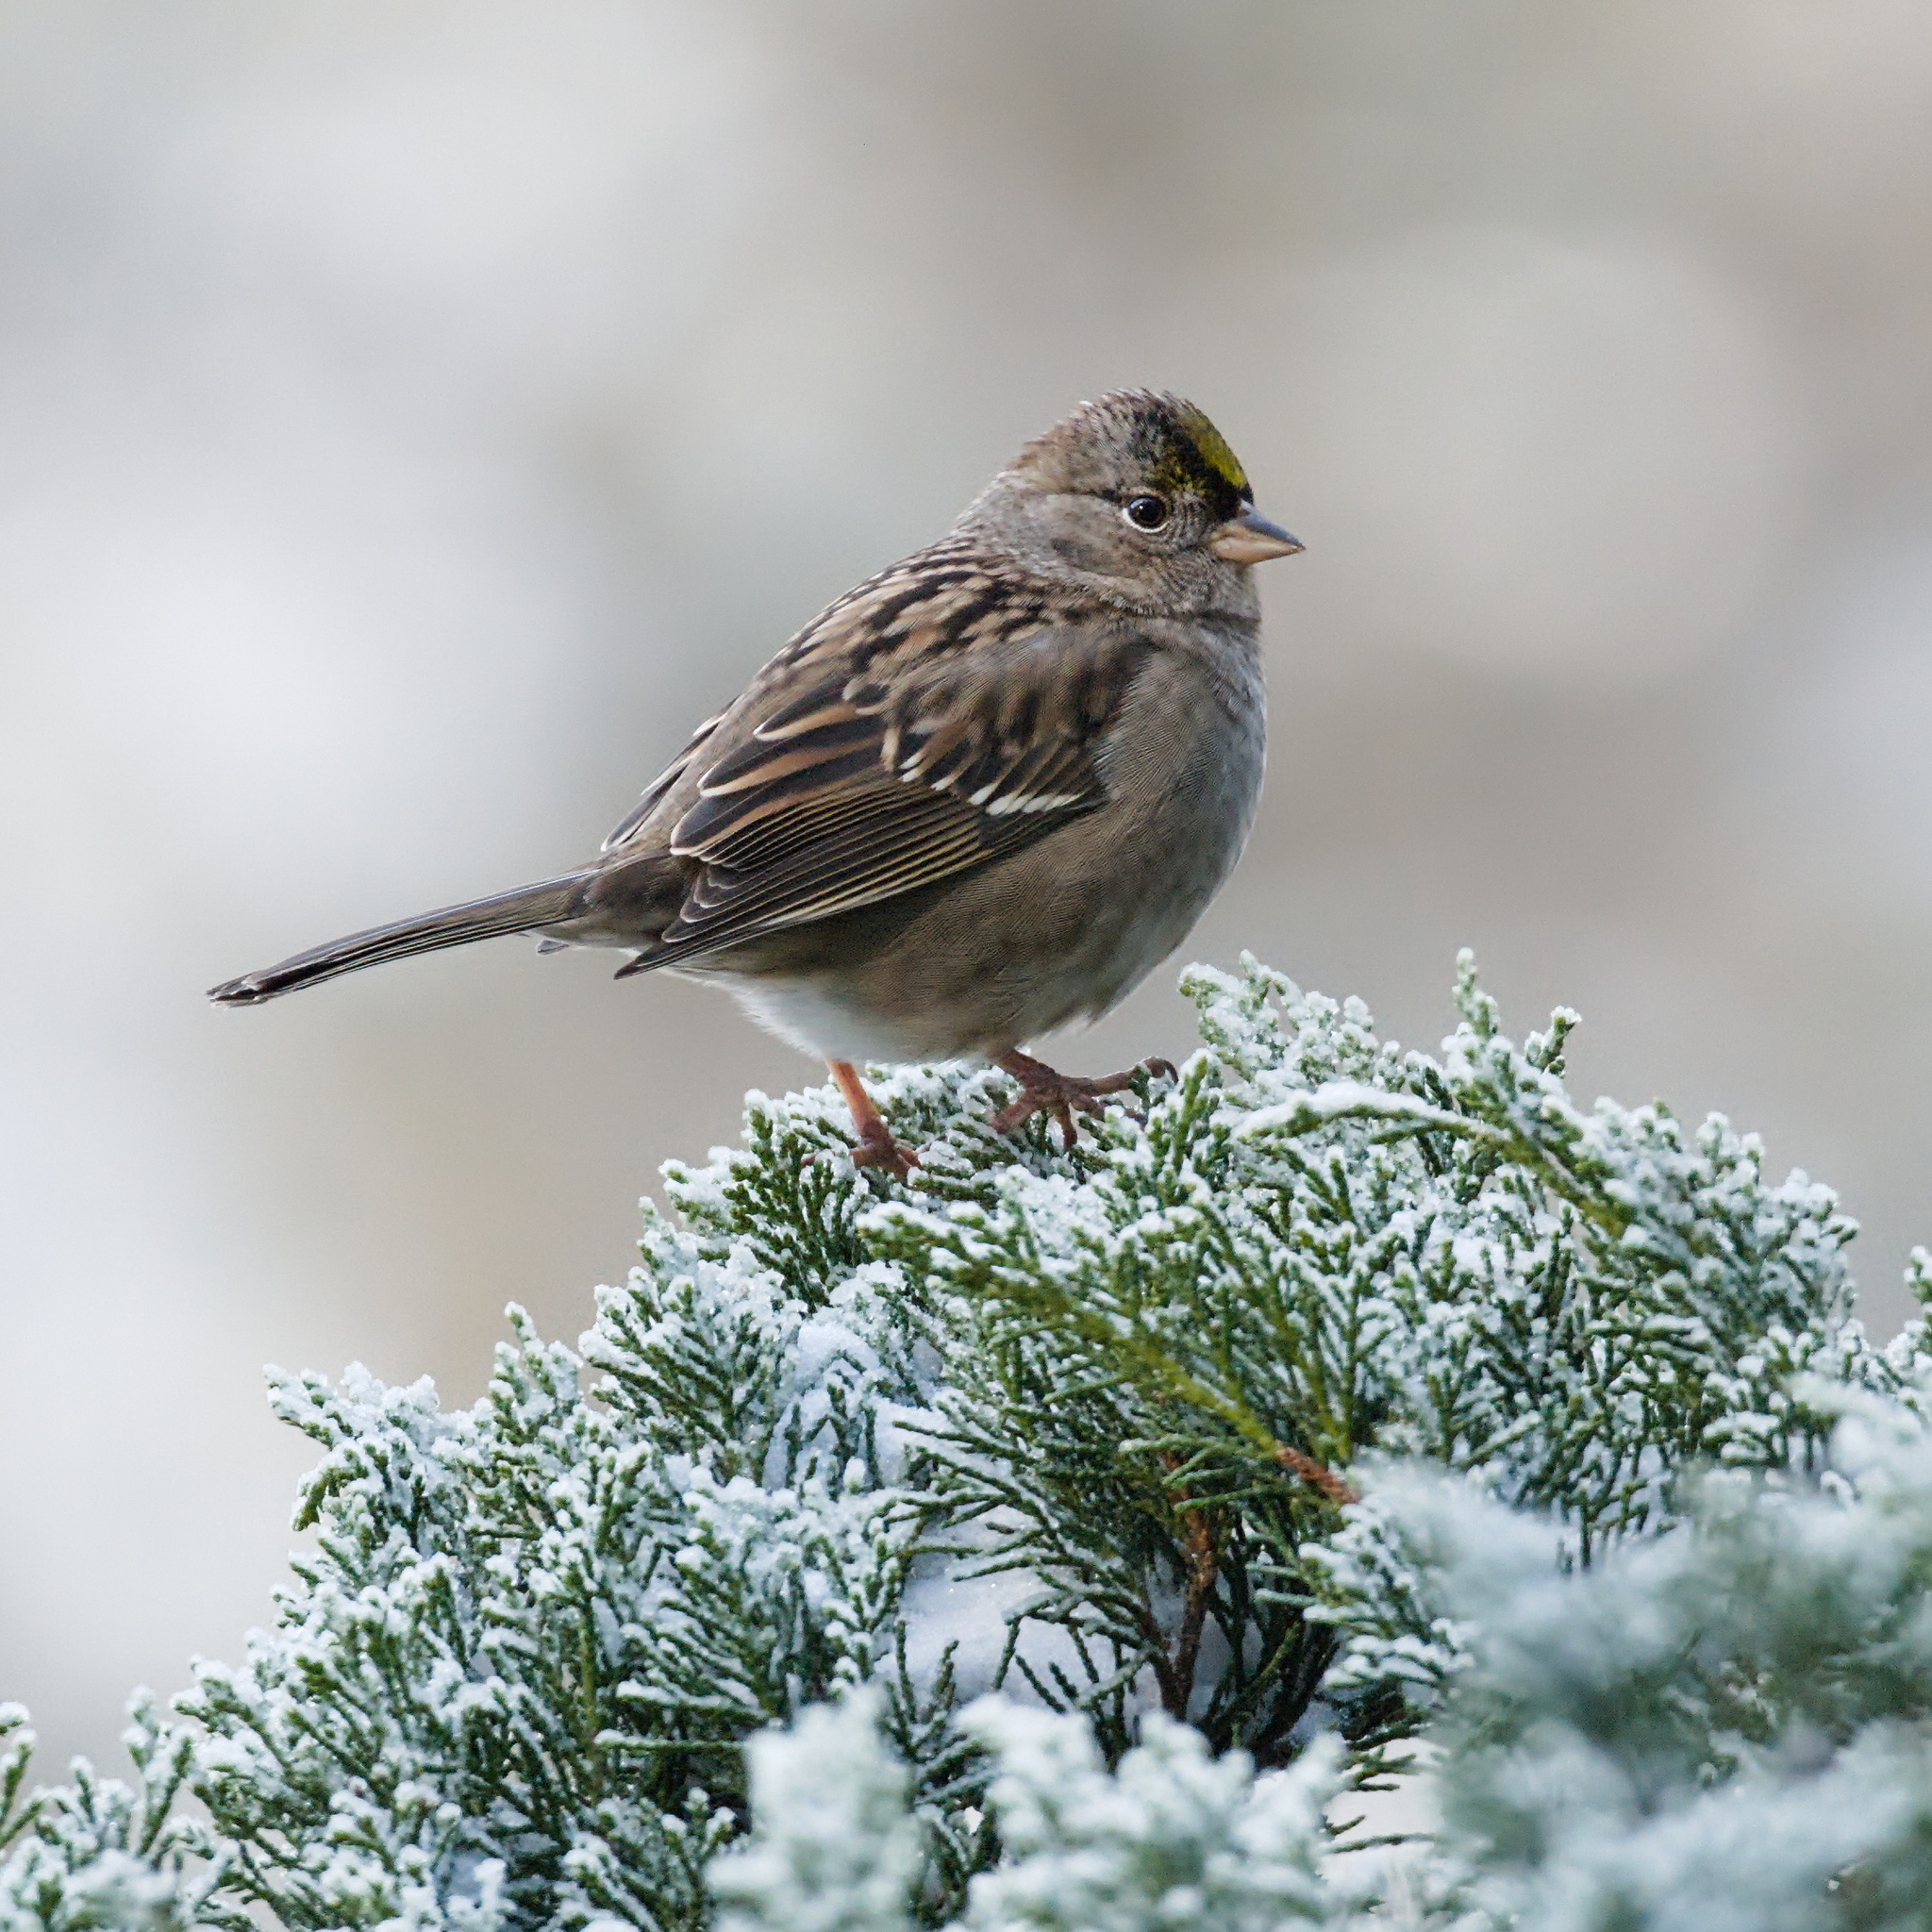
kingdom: Animalia
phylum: Chordata
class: Aves
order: Passeriformes
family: Passerellidae
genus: Zonotrichia
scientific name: Zonotrichia atricapilla
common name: Golden-crowned sparrow
